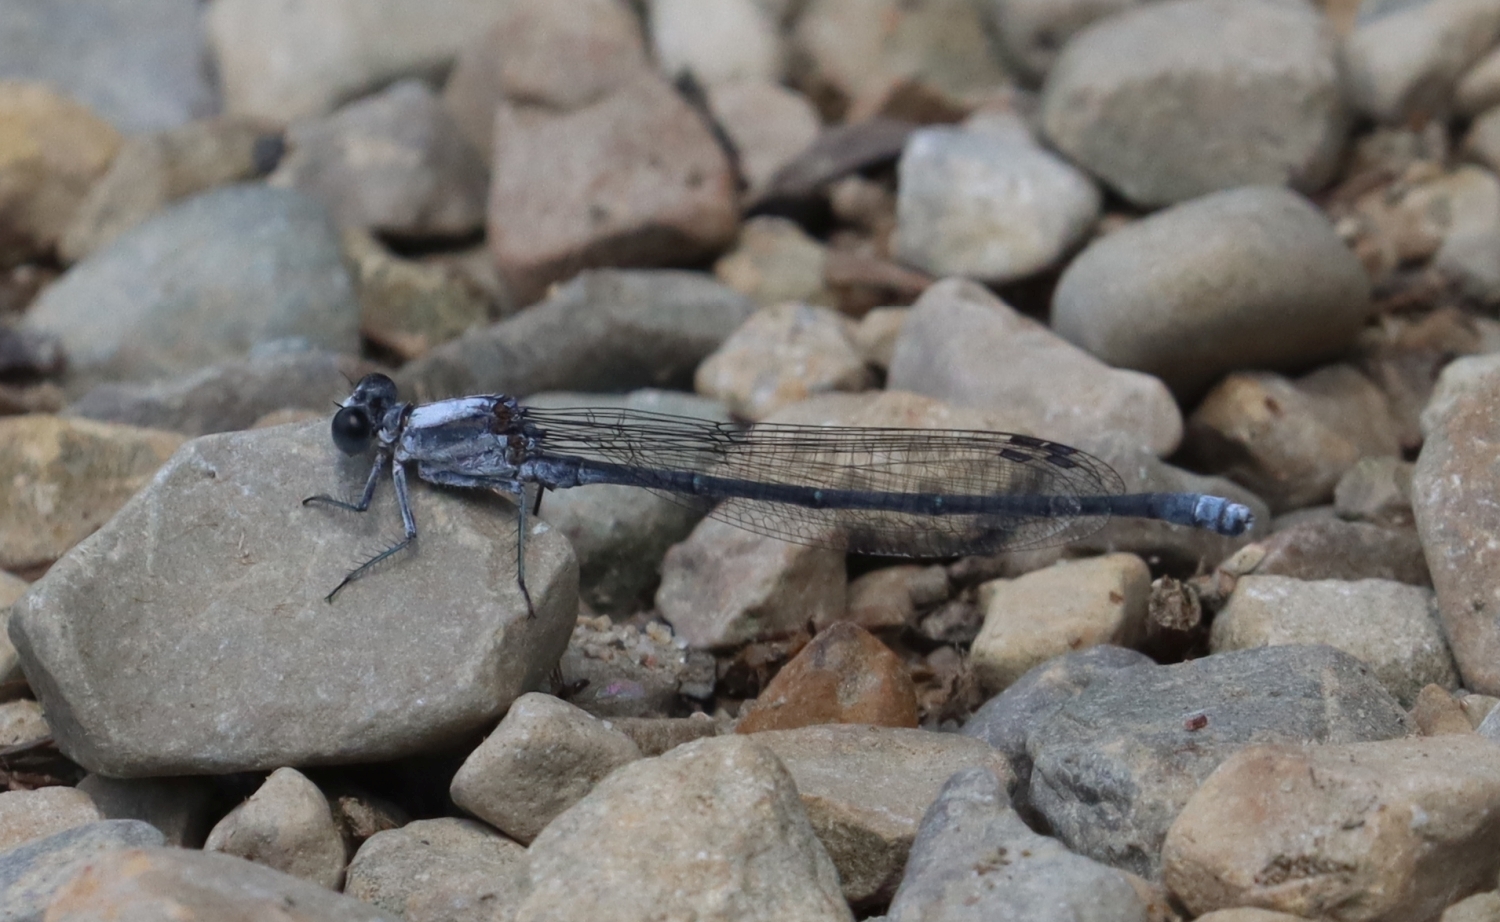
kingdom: Animalia
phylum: Arthropoda
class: Insecta
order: Odonata
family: Coenagrionidae
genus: Argia
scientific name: Argia moesta
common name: Powdered dancer
